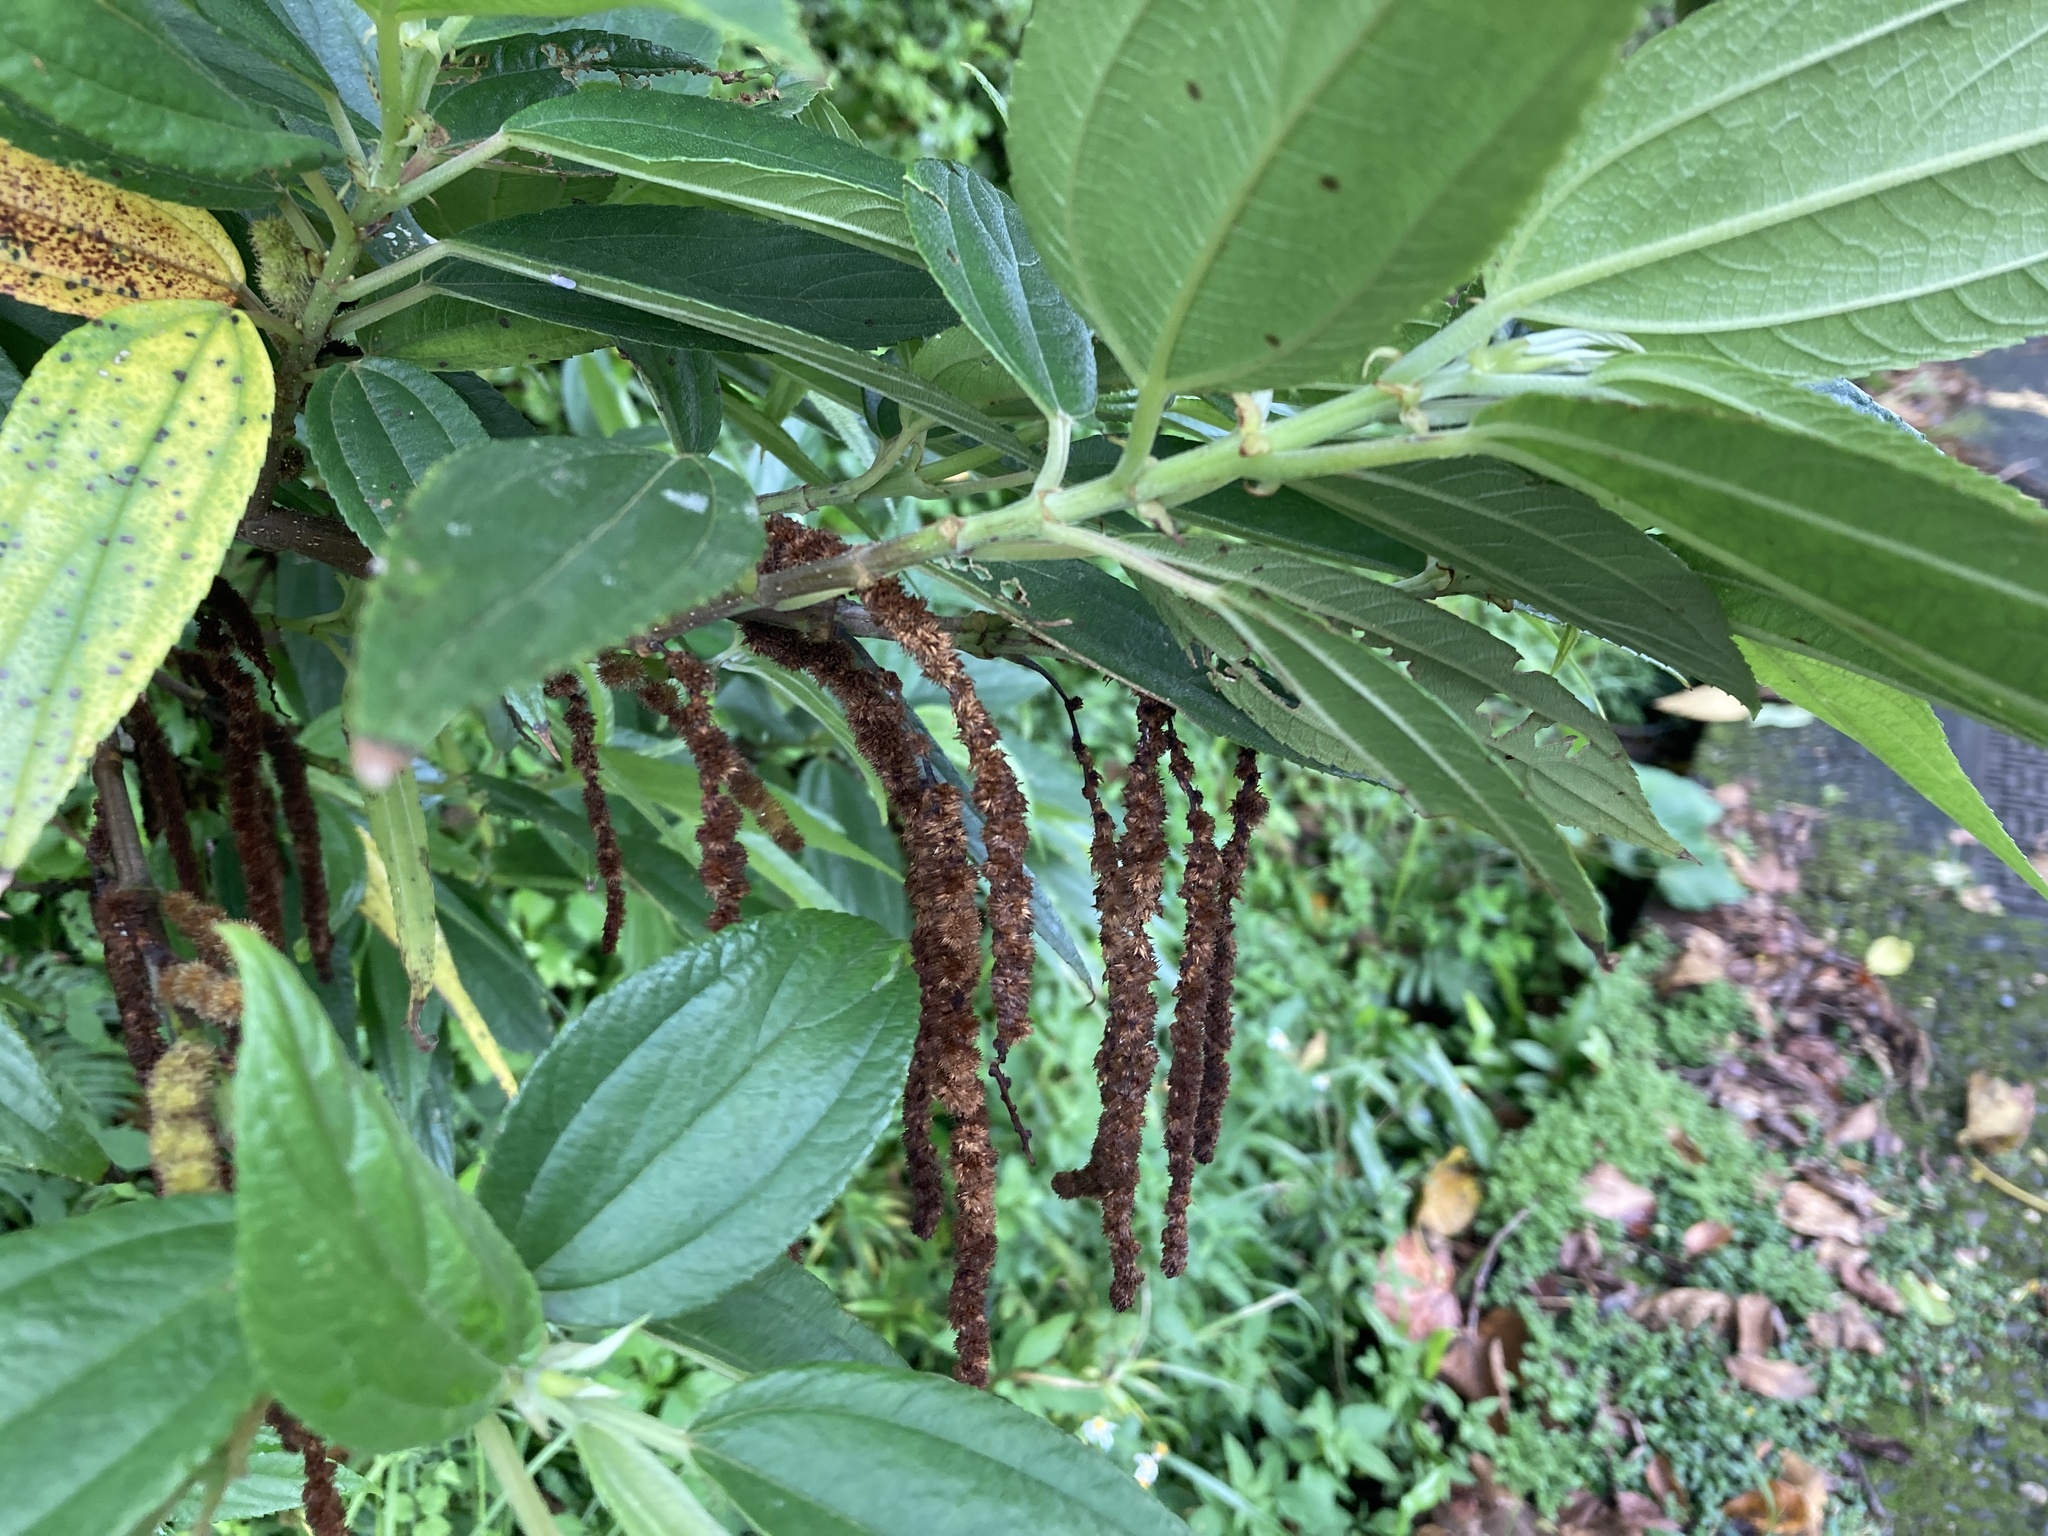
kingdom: Plantae
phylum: Tracheophyta
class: Magnoliopsida
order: Rosales
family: Urticaceae
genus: Boehmeria
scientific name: Boehmeria densiflora
